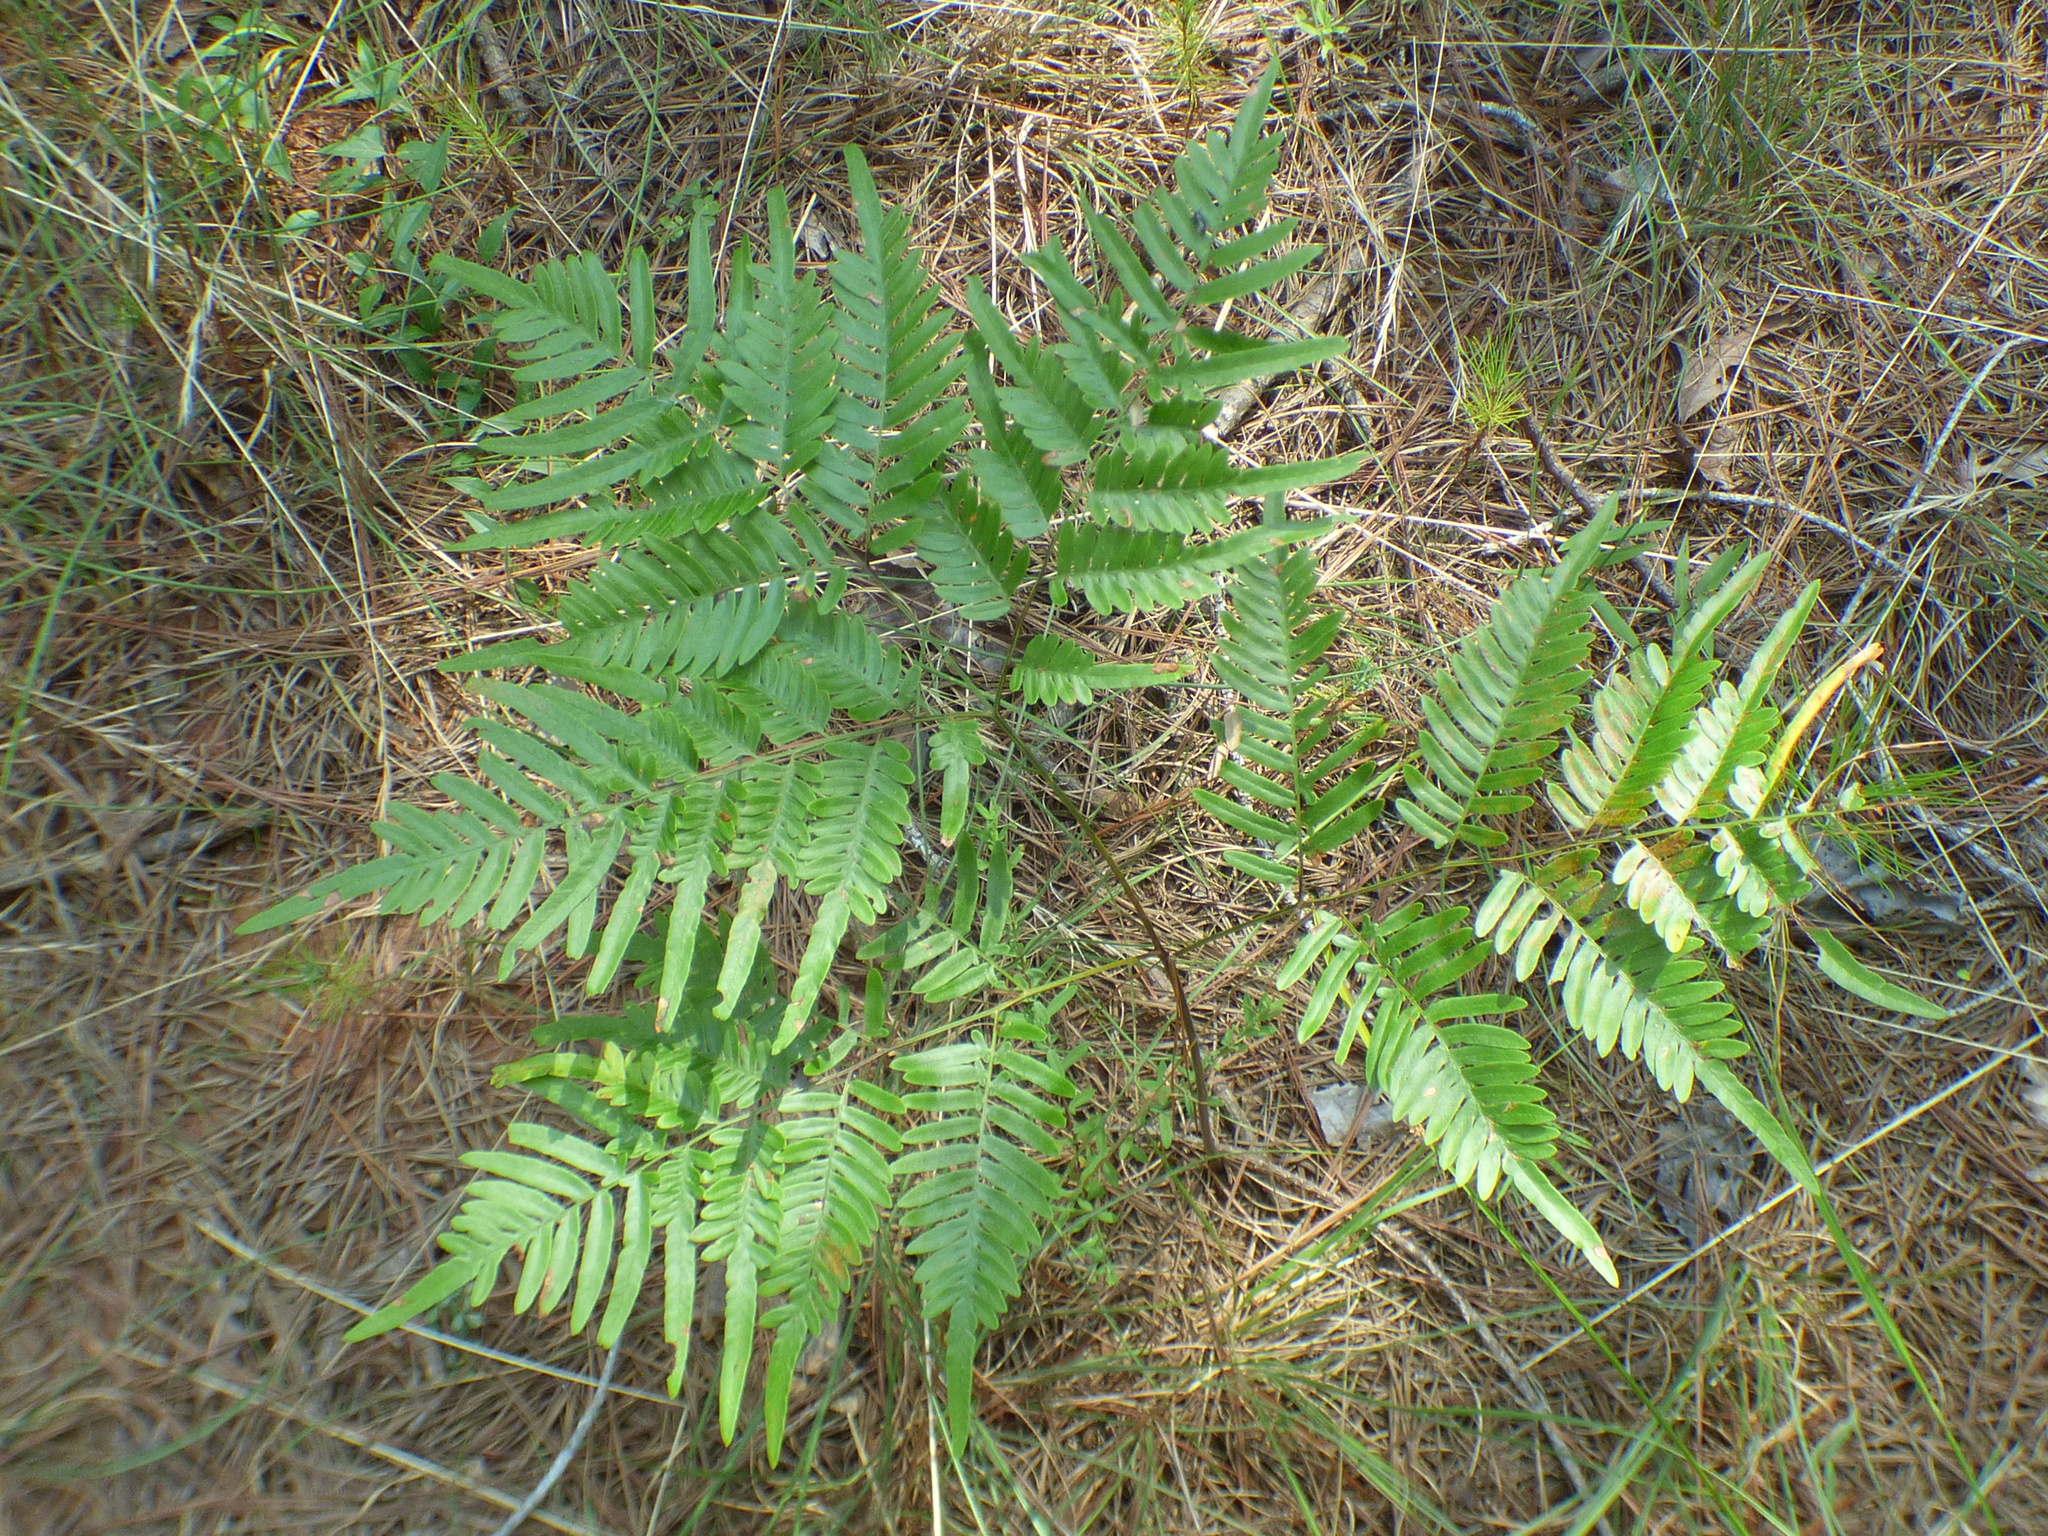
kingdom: Plantae
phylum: Tracheophyta
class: Polypodiopsida
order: Polypodiales
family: Dennstaedtiaceae
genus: Pteridium
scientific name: Pteridium aquilinum
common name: Bracken
